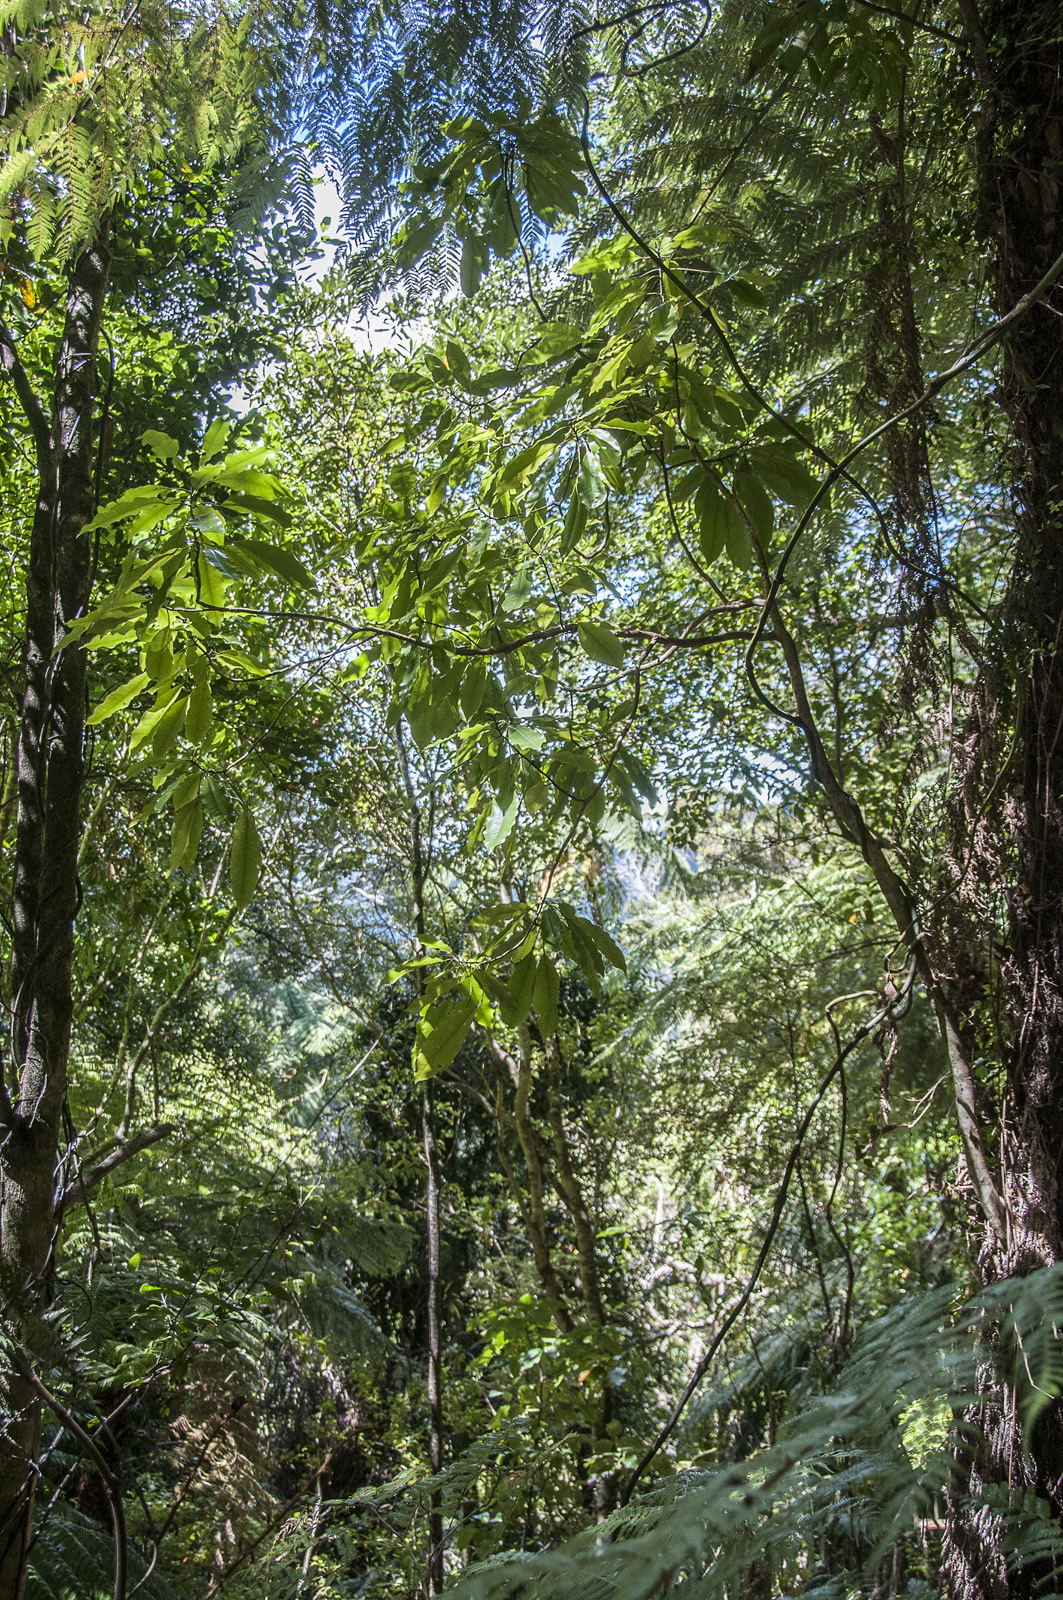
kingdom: Plantae
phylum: Tracheophyta
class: Magnoliopsida
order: Apiales
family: Araliaceae
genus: Raukaua
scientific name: Raukaua edgerleyi
